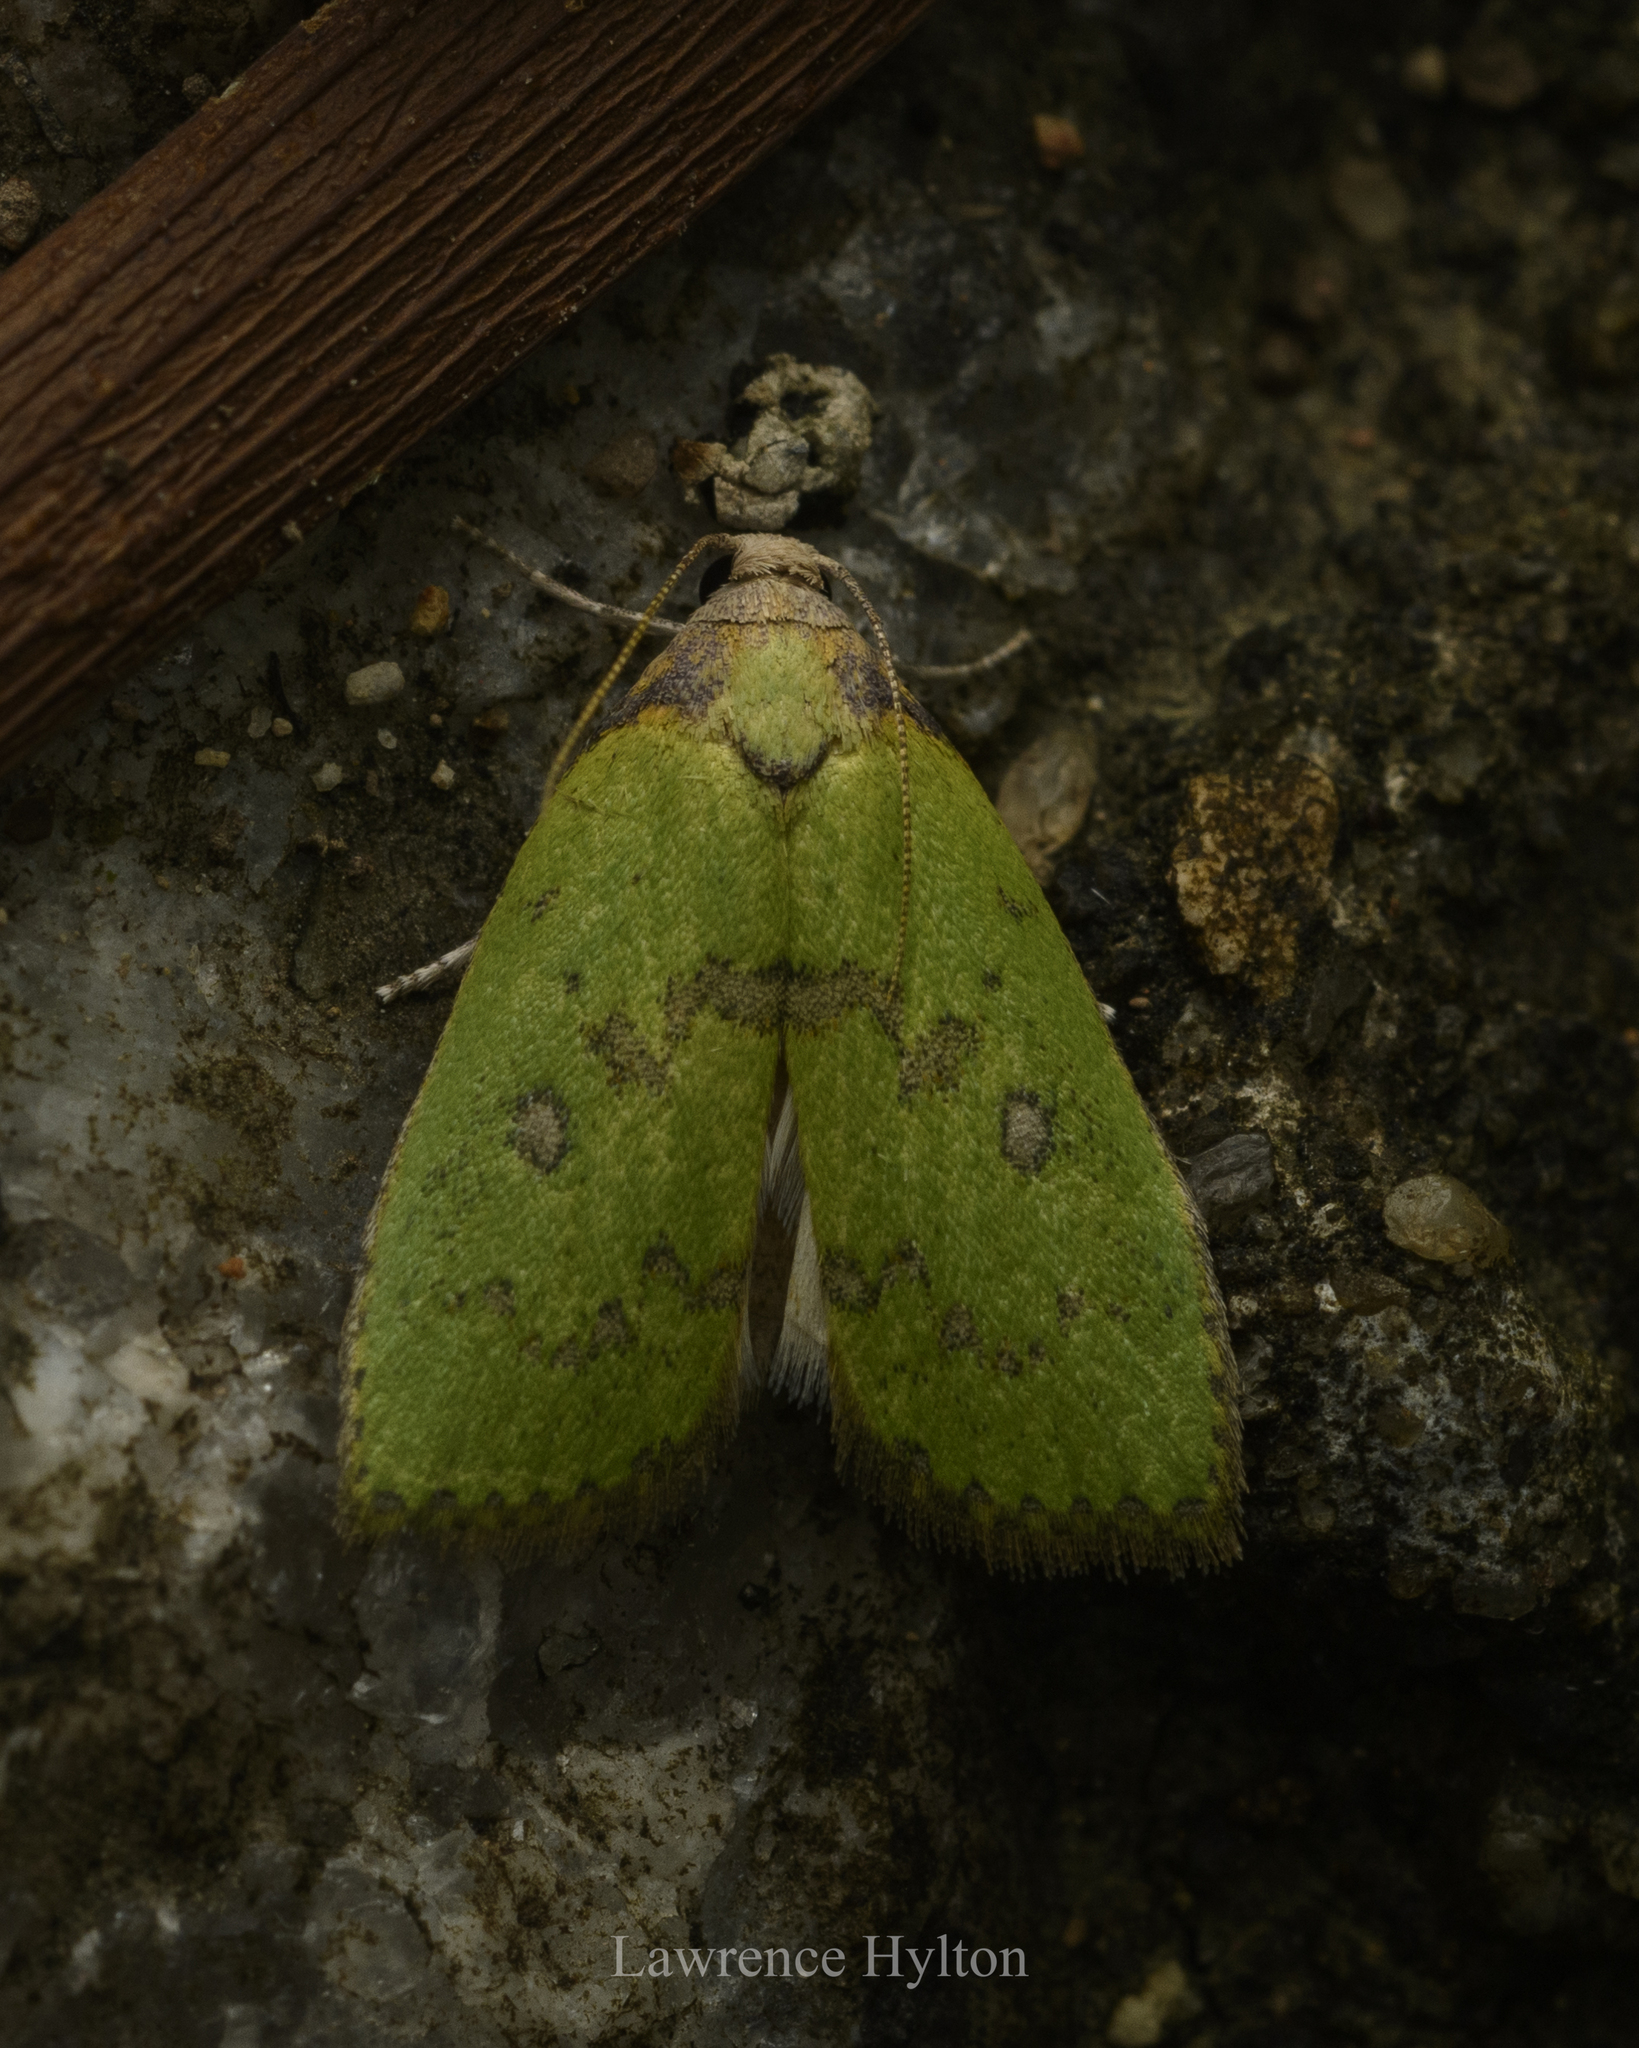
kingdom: Animalia
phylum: Arthropoda
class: Insecta
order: Lepidoptera
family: Pyralidae
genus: Doloessa
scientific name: Doloessa viridis
